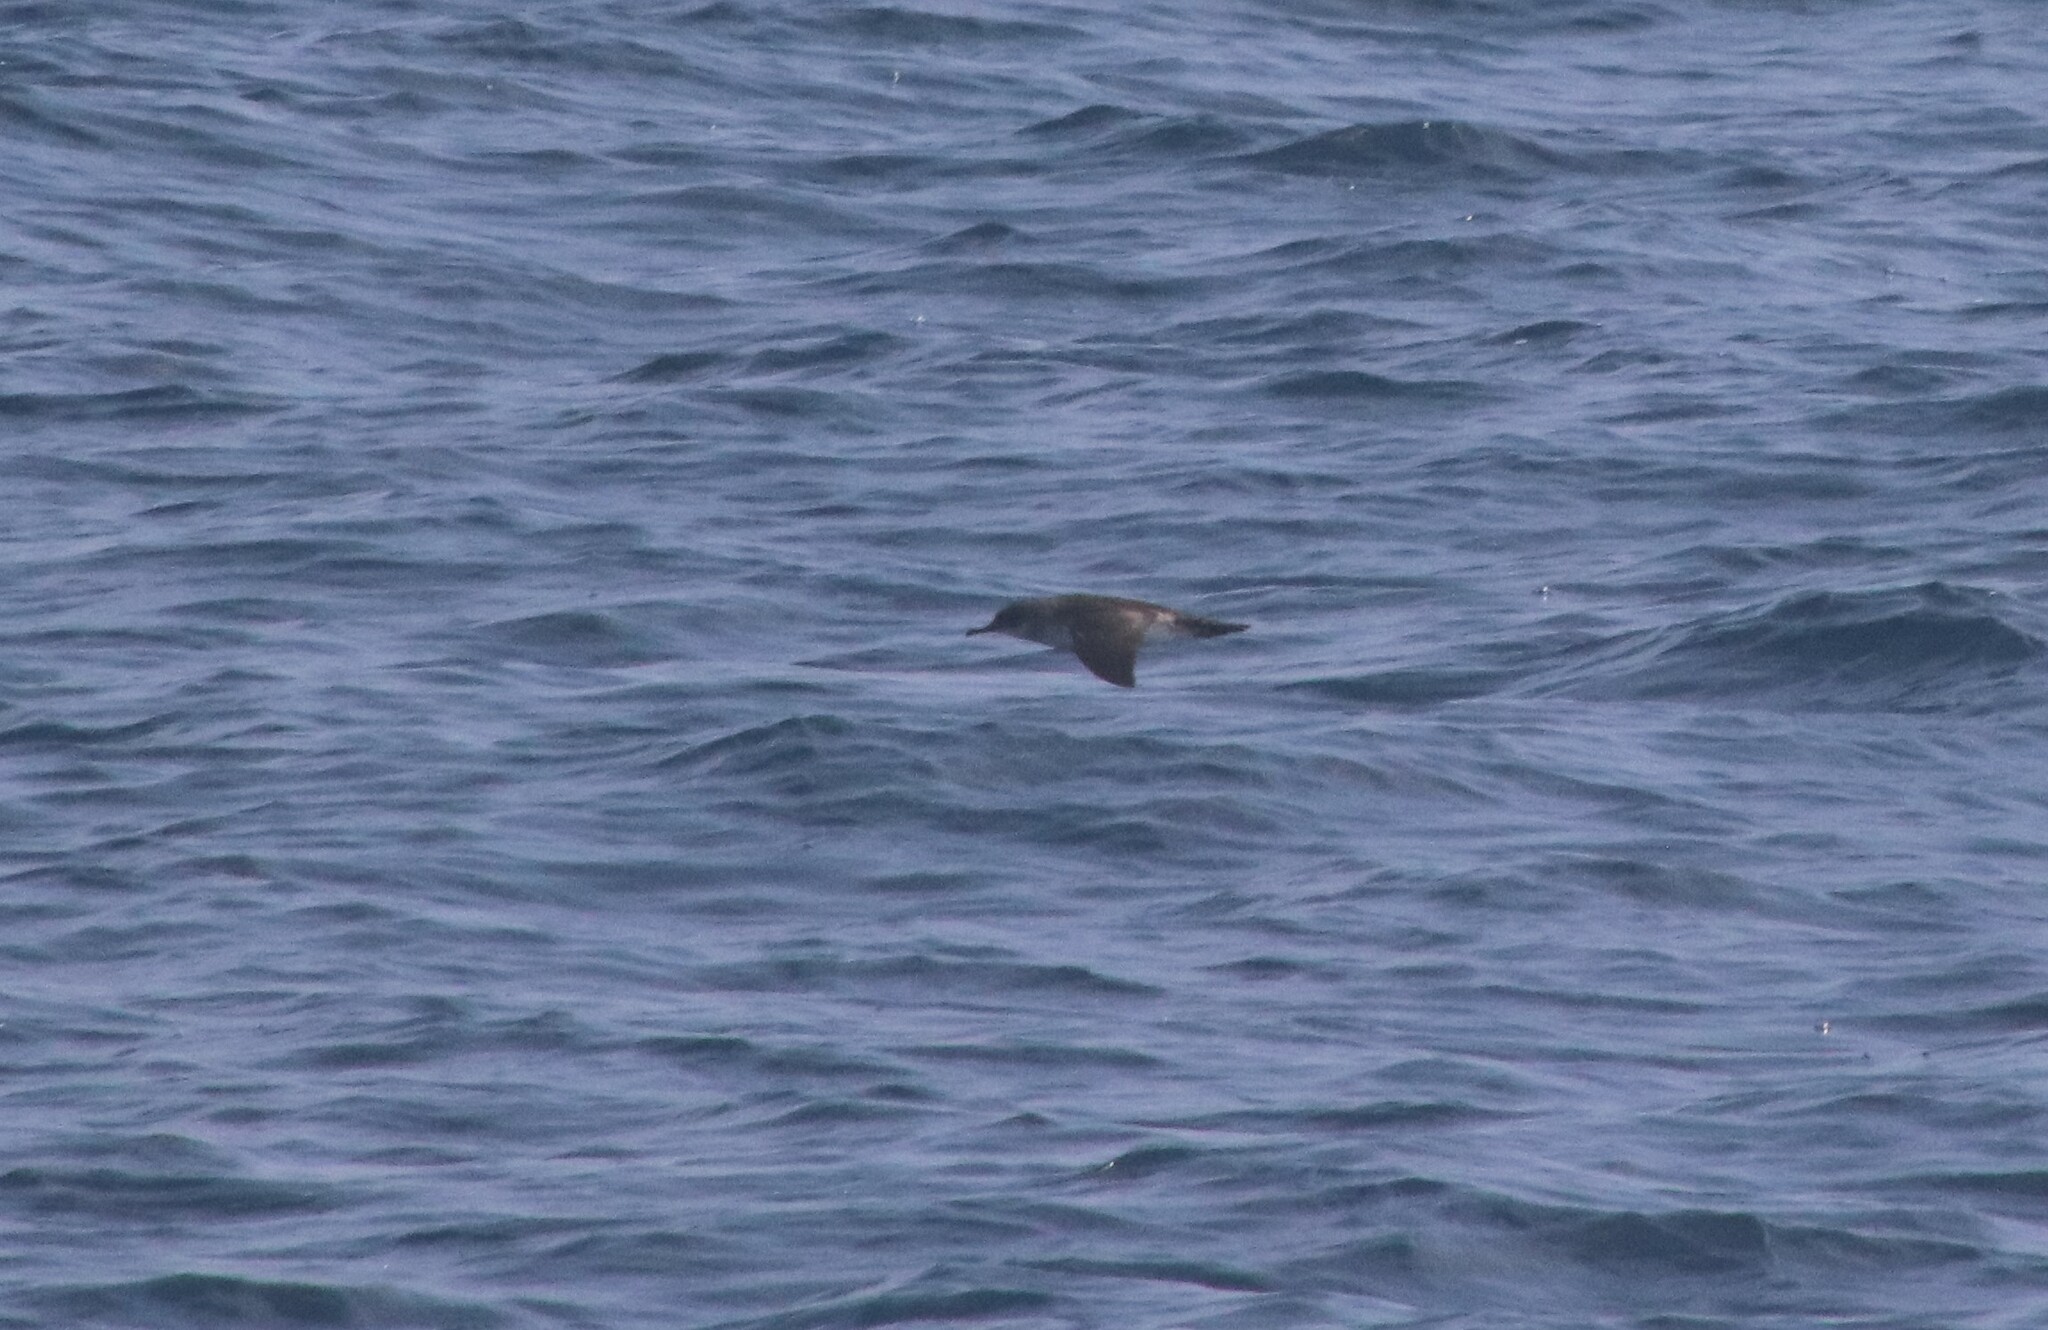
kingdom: Animalia
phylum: Chordata
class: Aves
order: Procellariiformes
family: Procellariidae
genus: Puffinus
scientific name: Puffinus opisthomelas
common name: Black-vented shearwater
